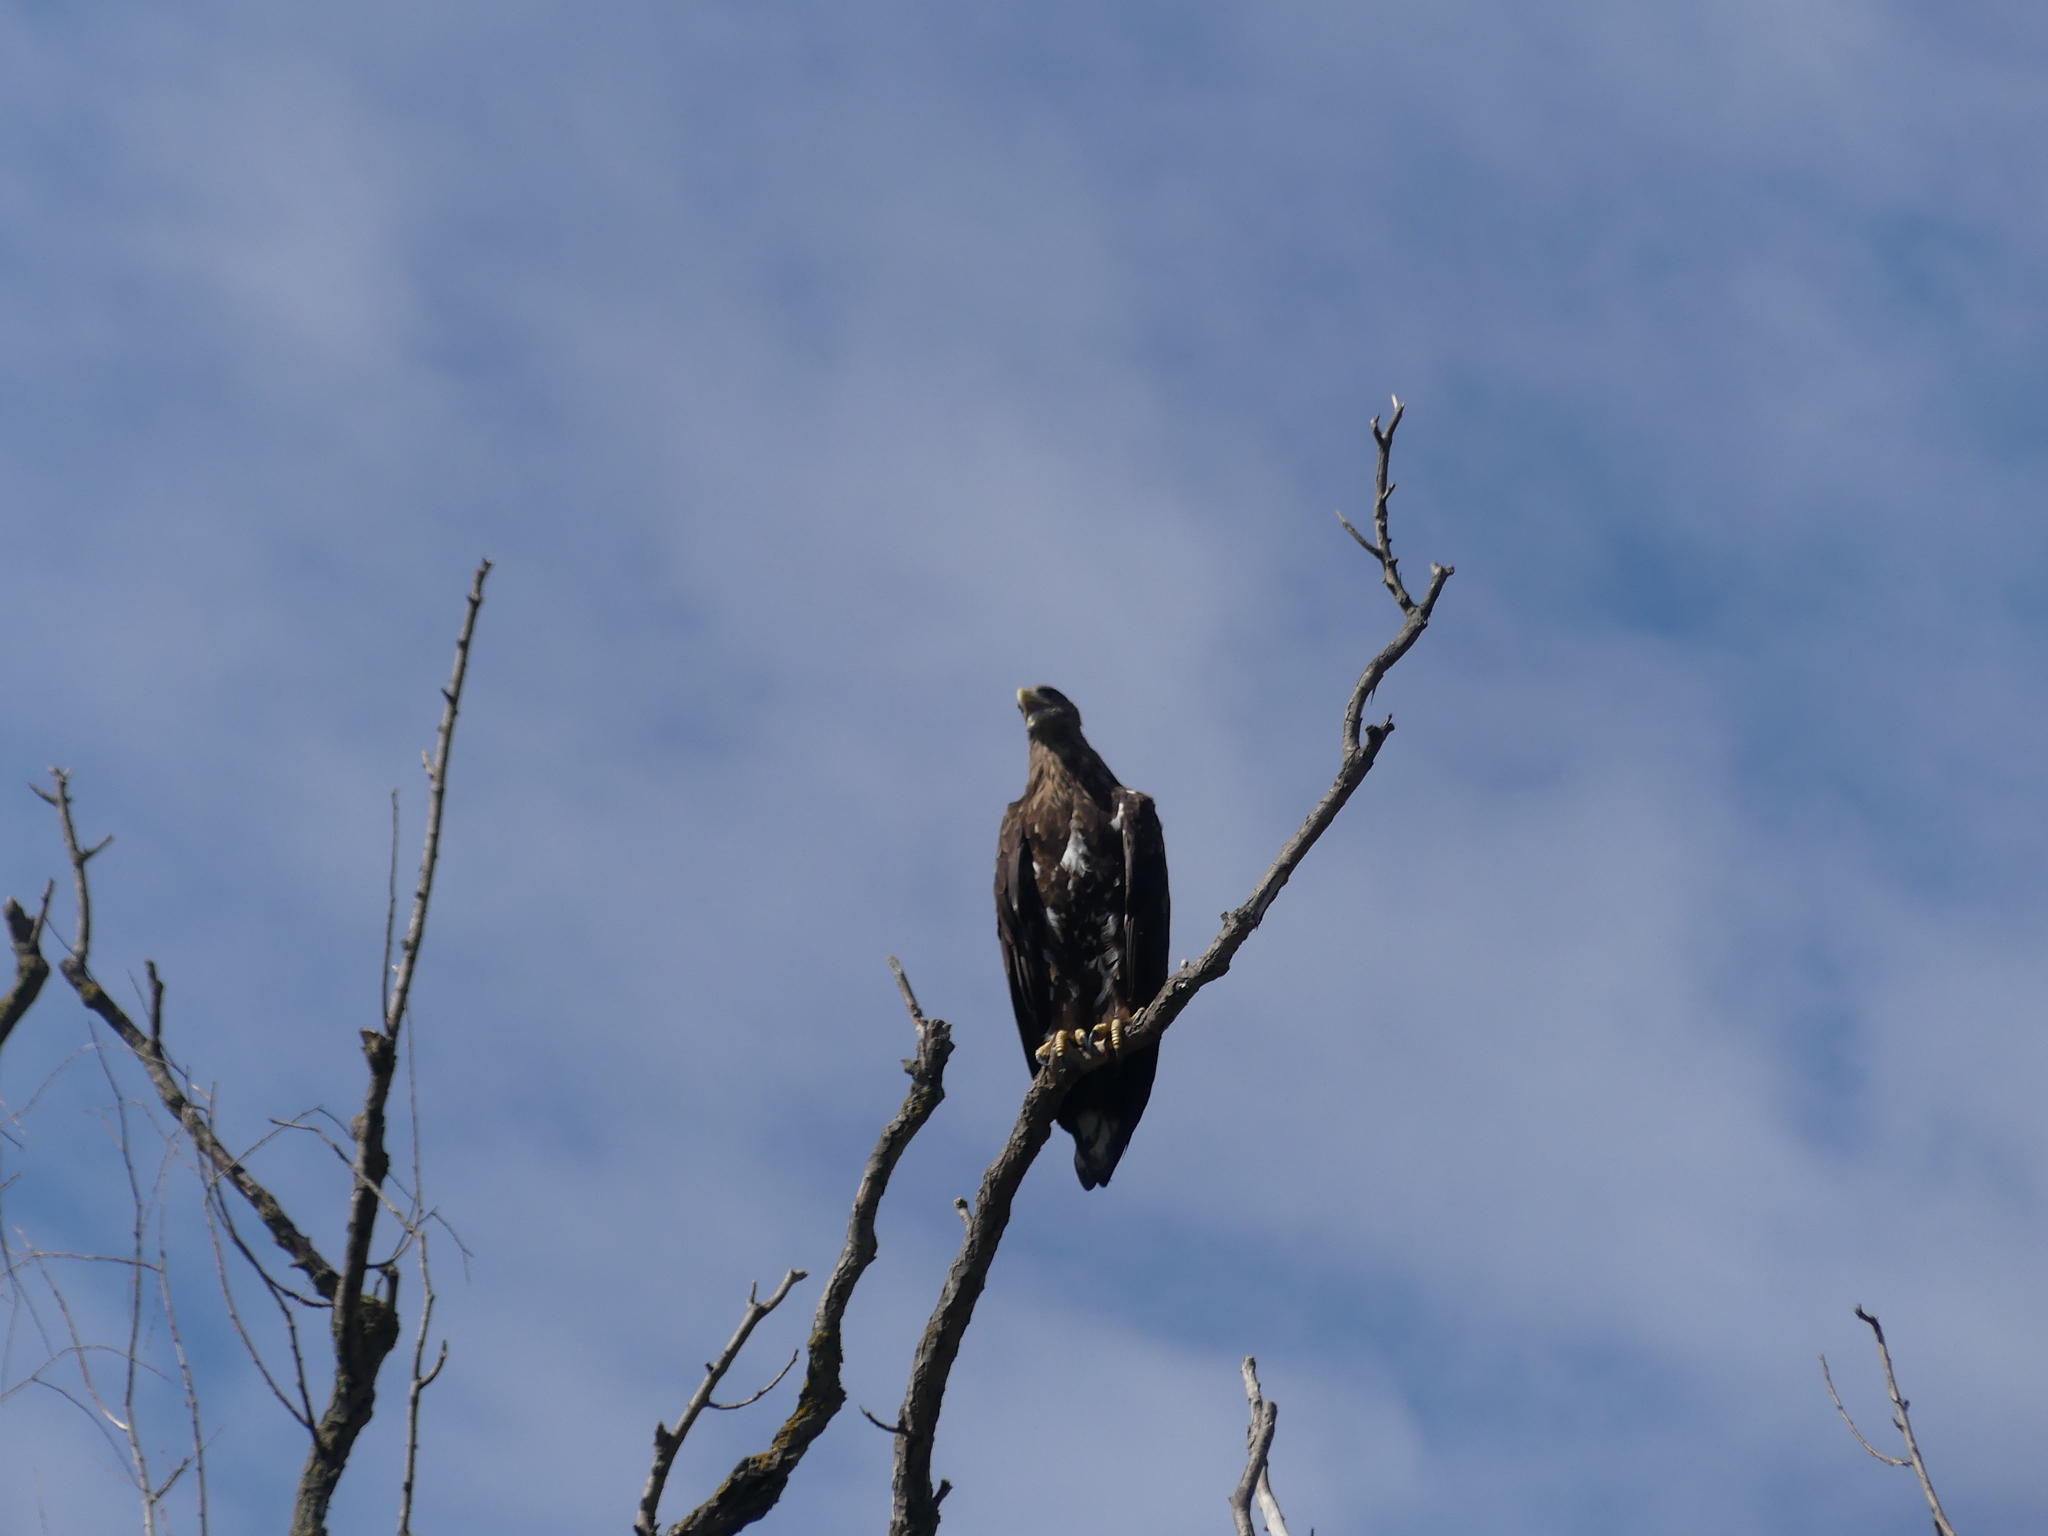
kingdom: Animalia
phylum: Chordata
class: Aves
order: Accipitriformes
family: Accipitridae
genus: Haliaeetus
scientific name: Haliaeetus albicilla
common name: White-tailed eagle
